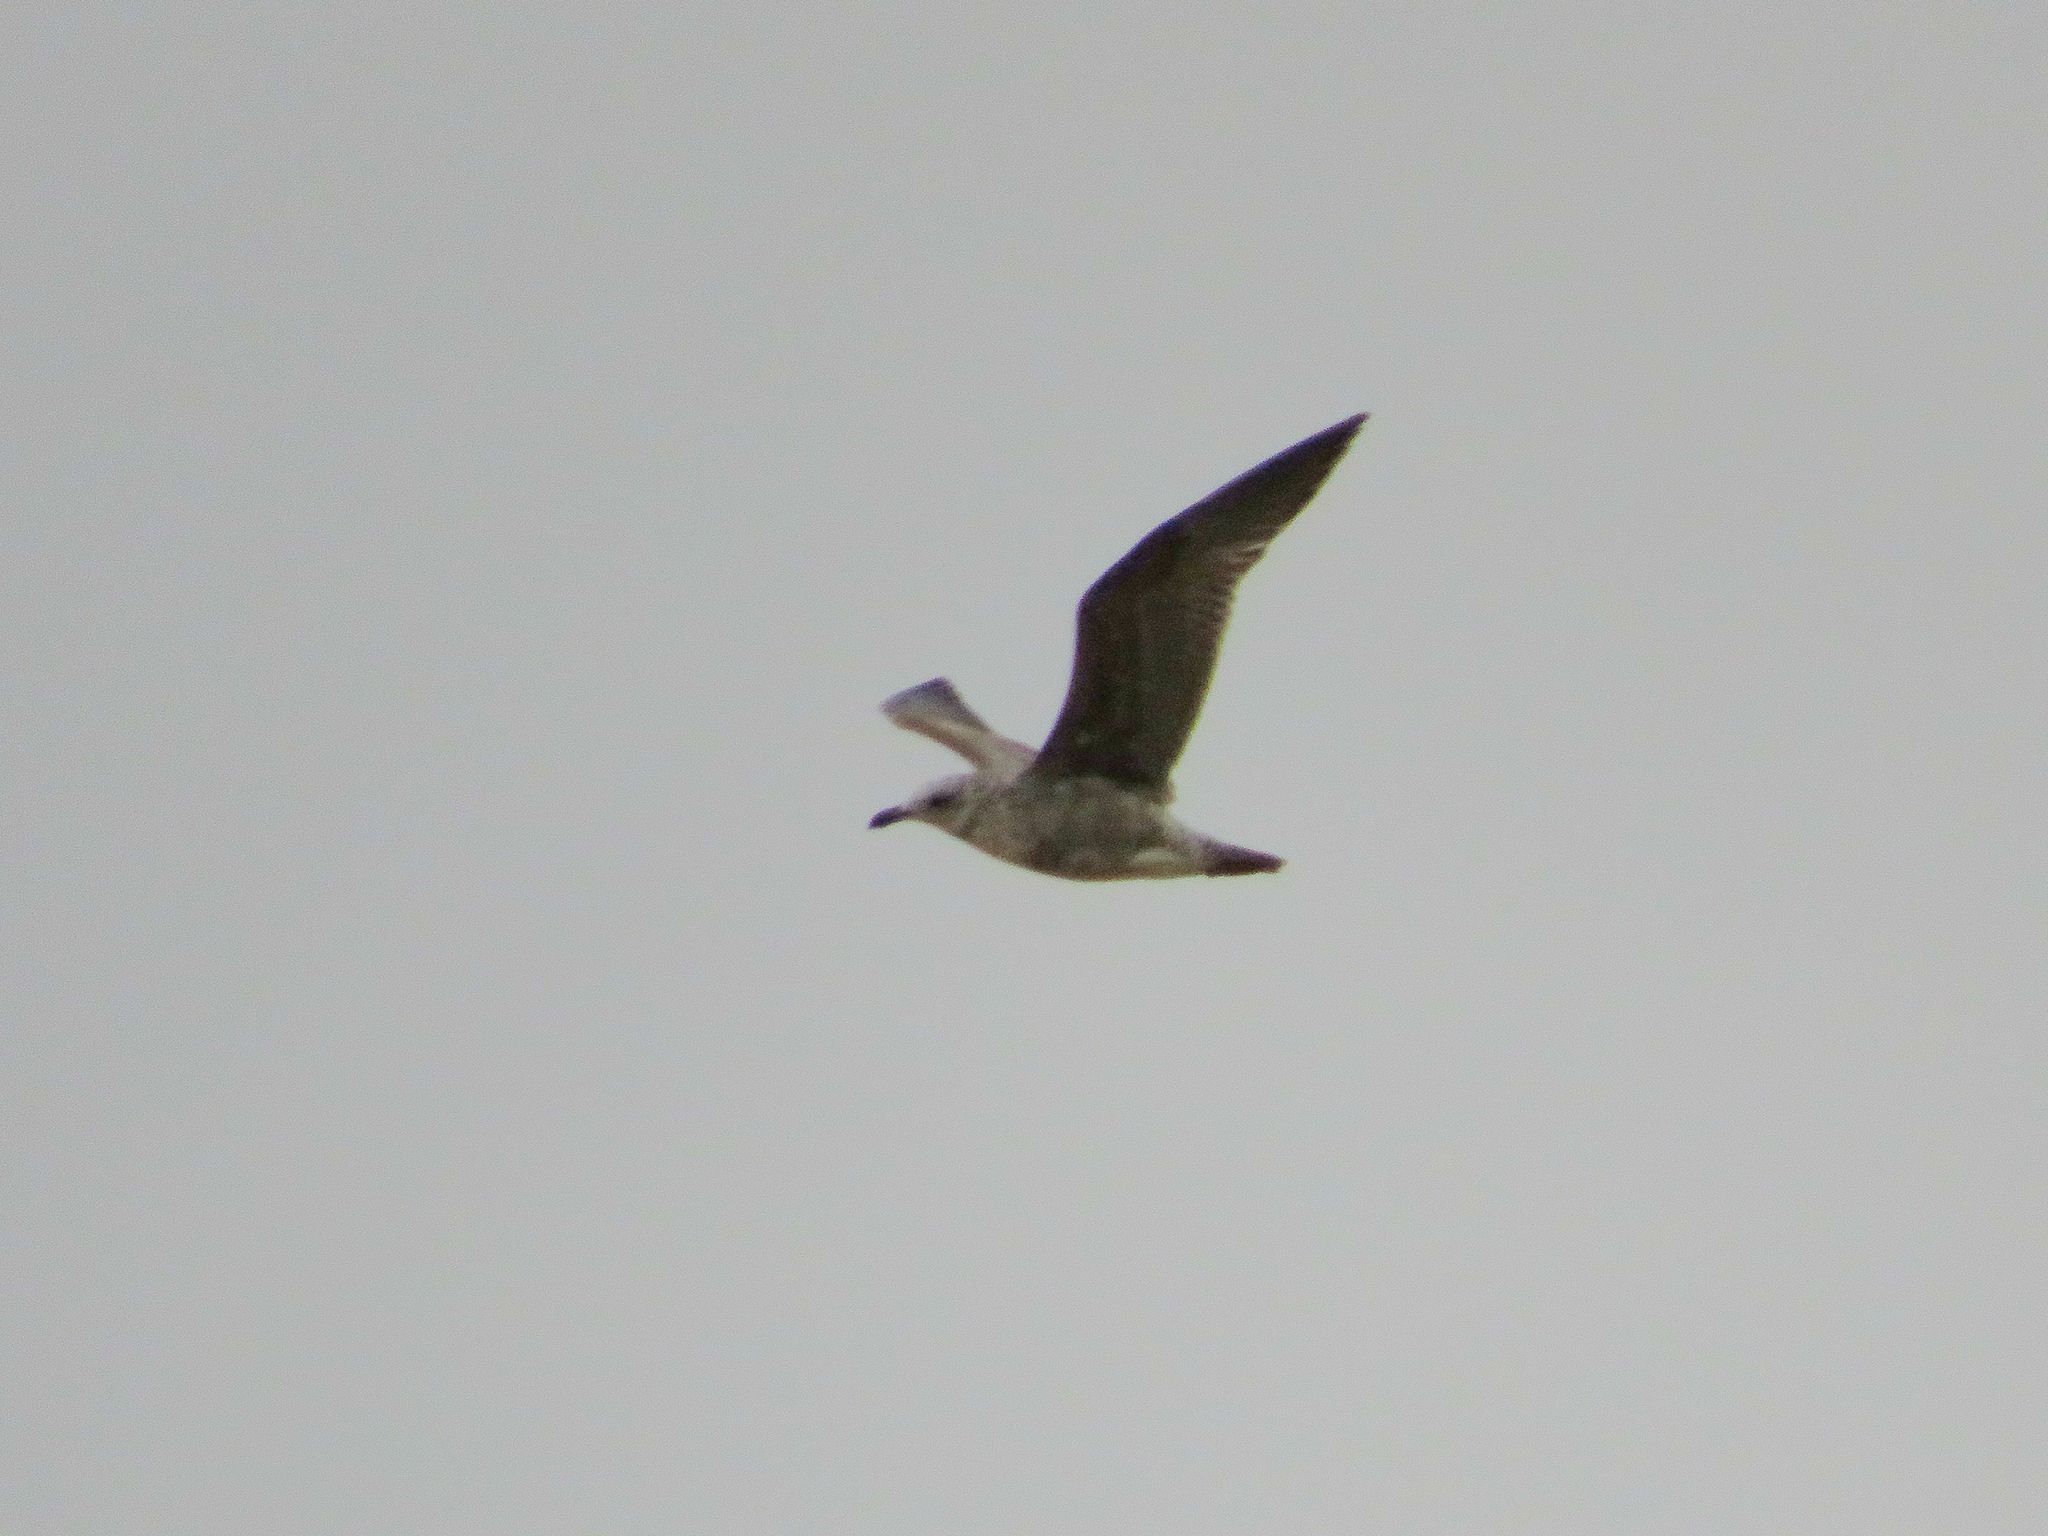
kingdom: Animalia
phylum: Chordata
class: Aves
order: Charadriiformes
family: Laridae
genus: Larus
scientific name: Larus dominicanus
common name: Kelp gull
